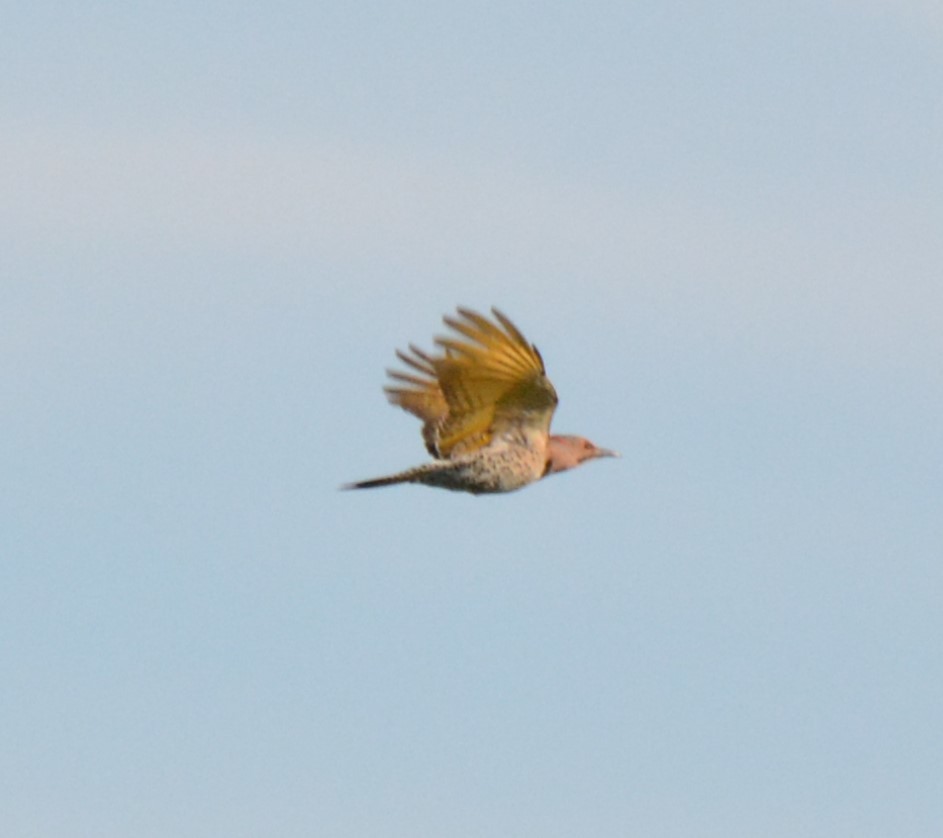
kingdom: Animalia
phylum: Chordata
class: Aves
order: Piciformes
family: Picidae
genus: Colaptes
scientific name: Colaptes auratus
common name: Northern flicker
